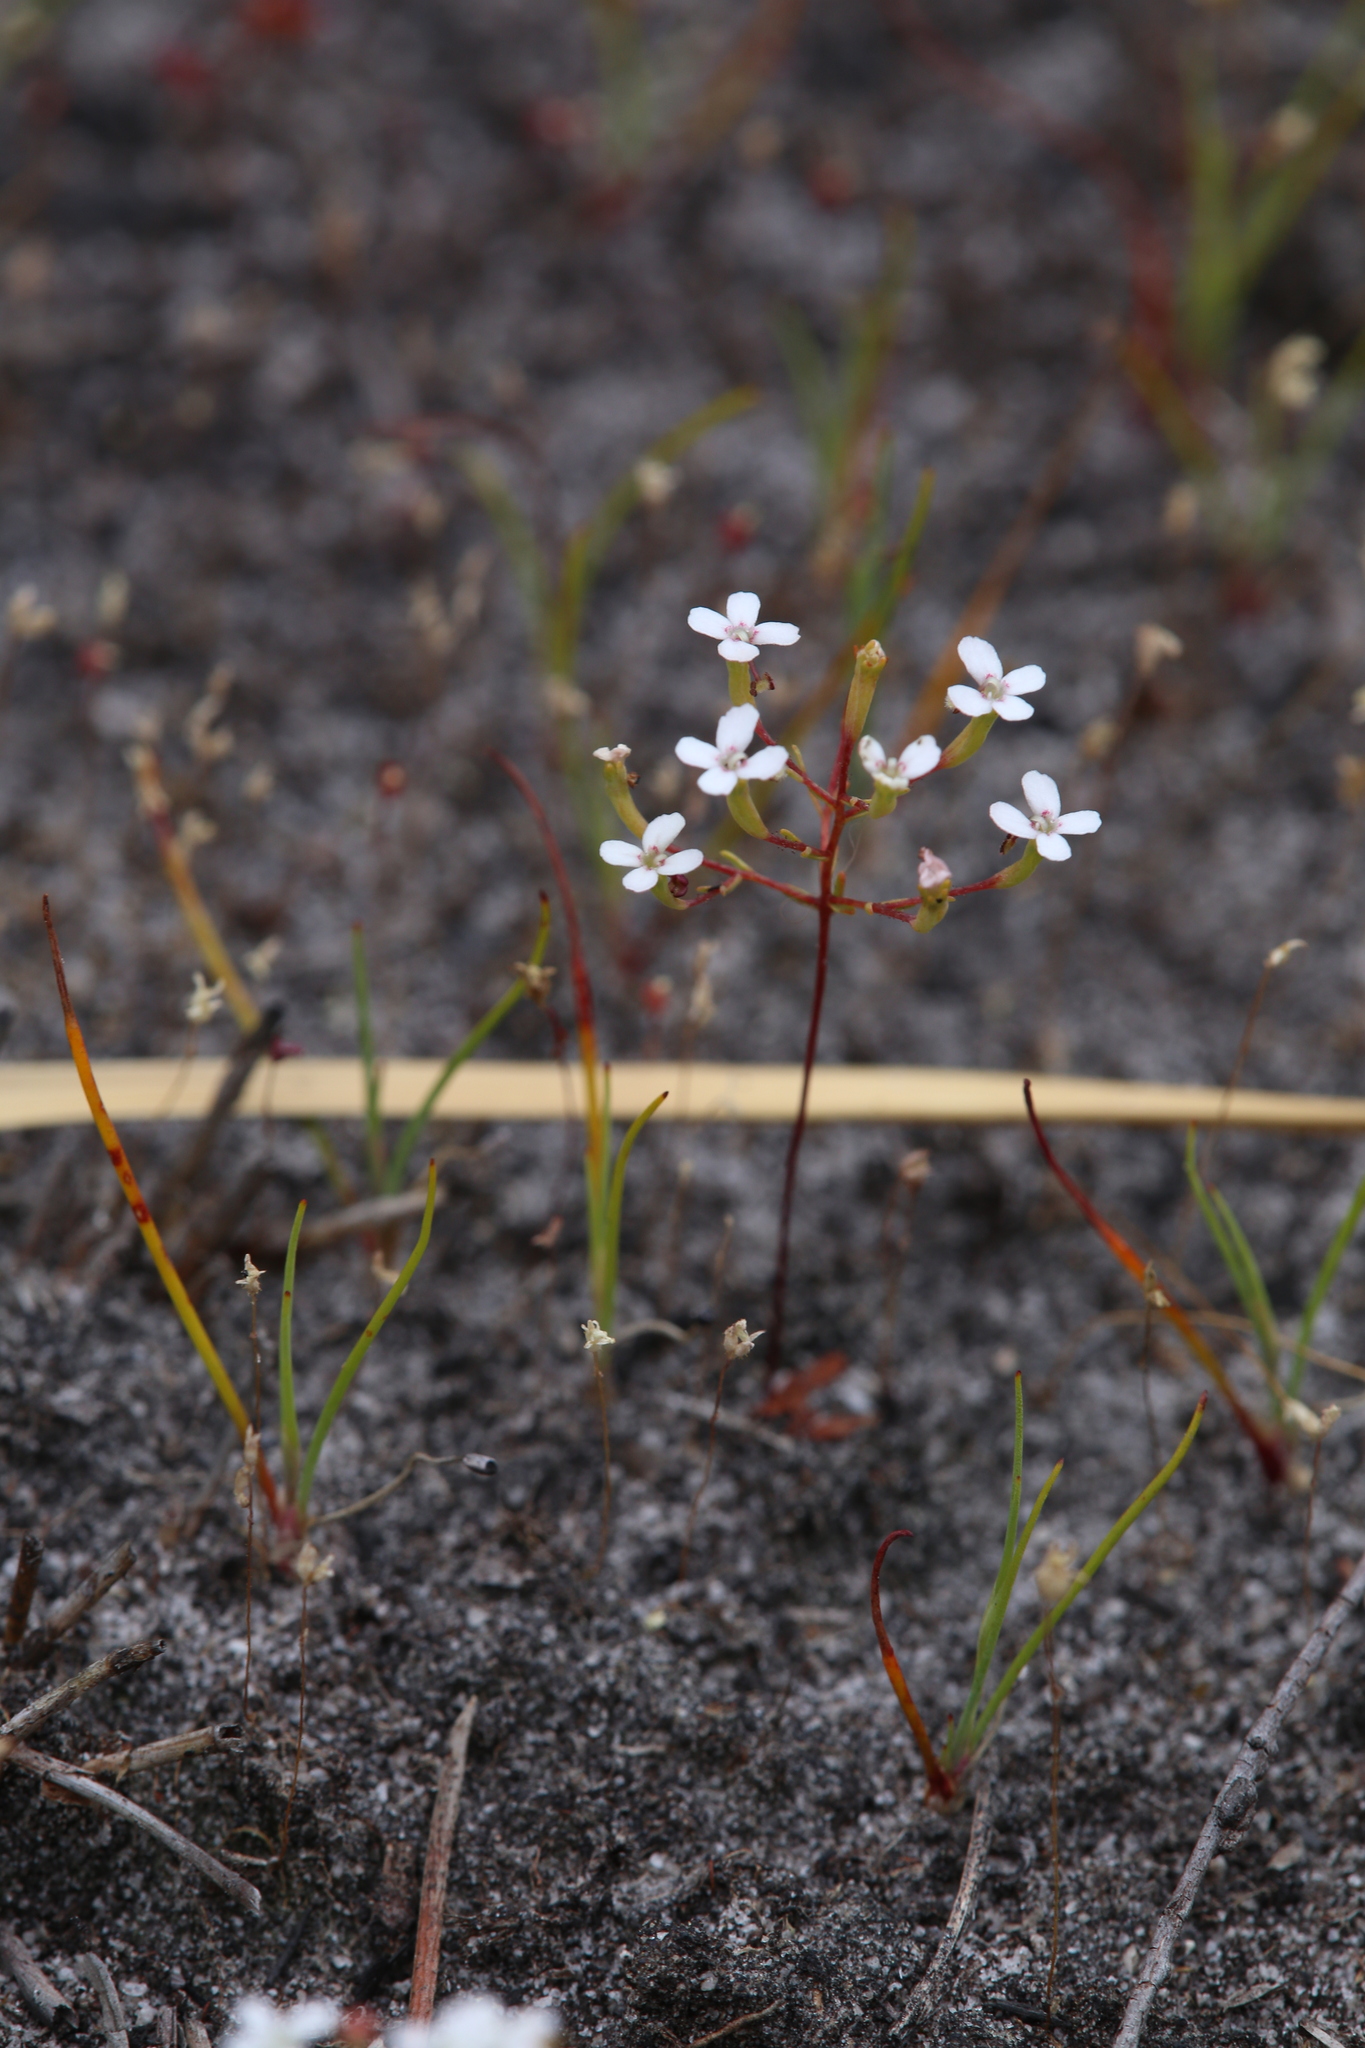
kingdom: Plantae
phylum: Tracheophyta
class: Magnoliopsida
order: Asterales
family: Stylidiaceae
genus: Stylidium
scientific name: Stylidium pulchellum
